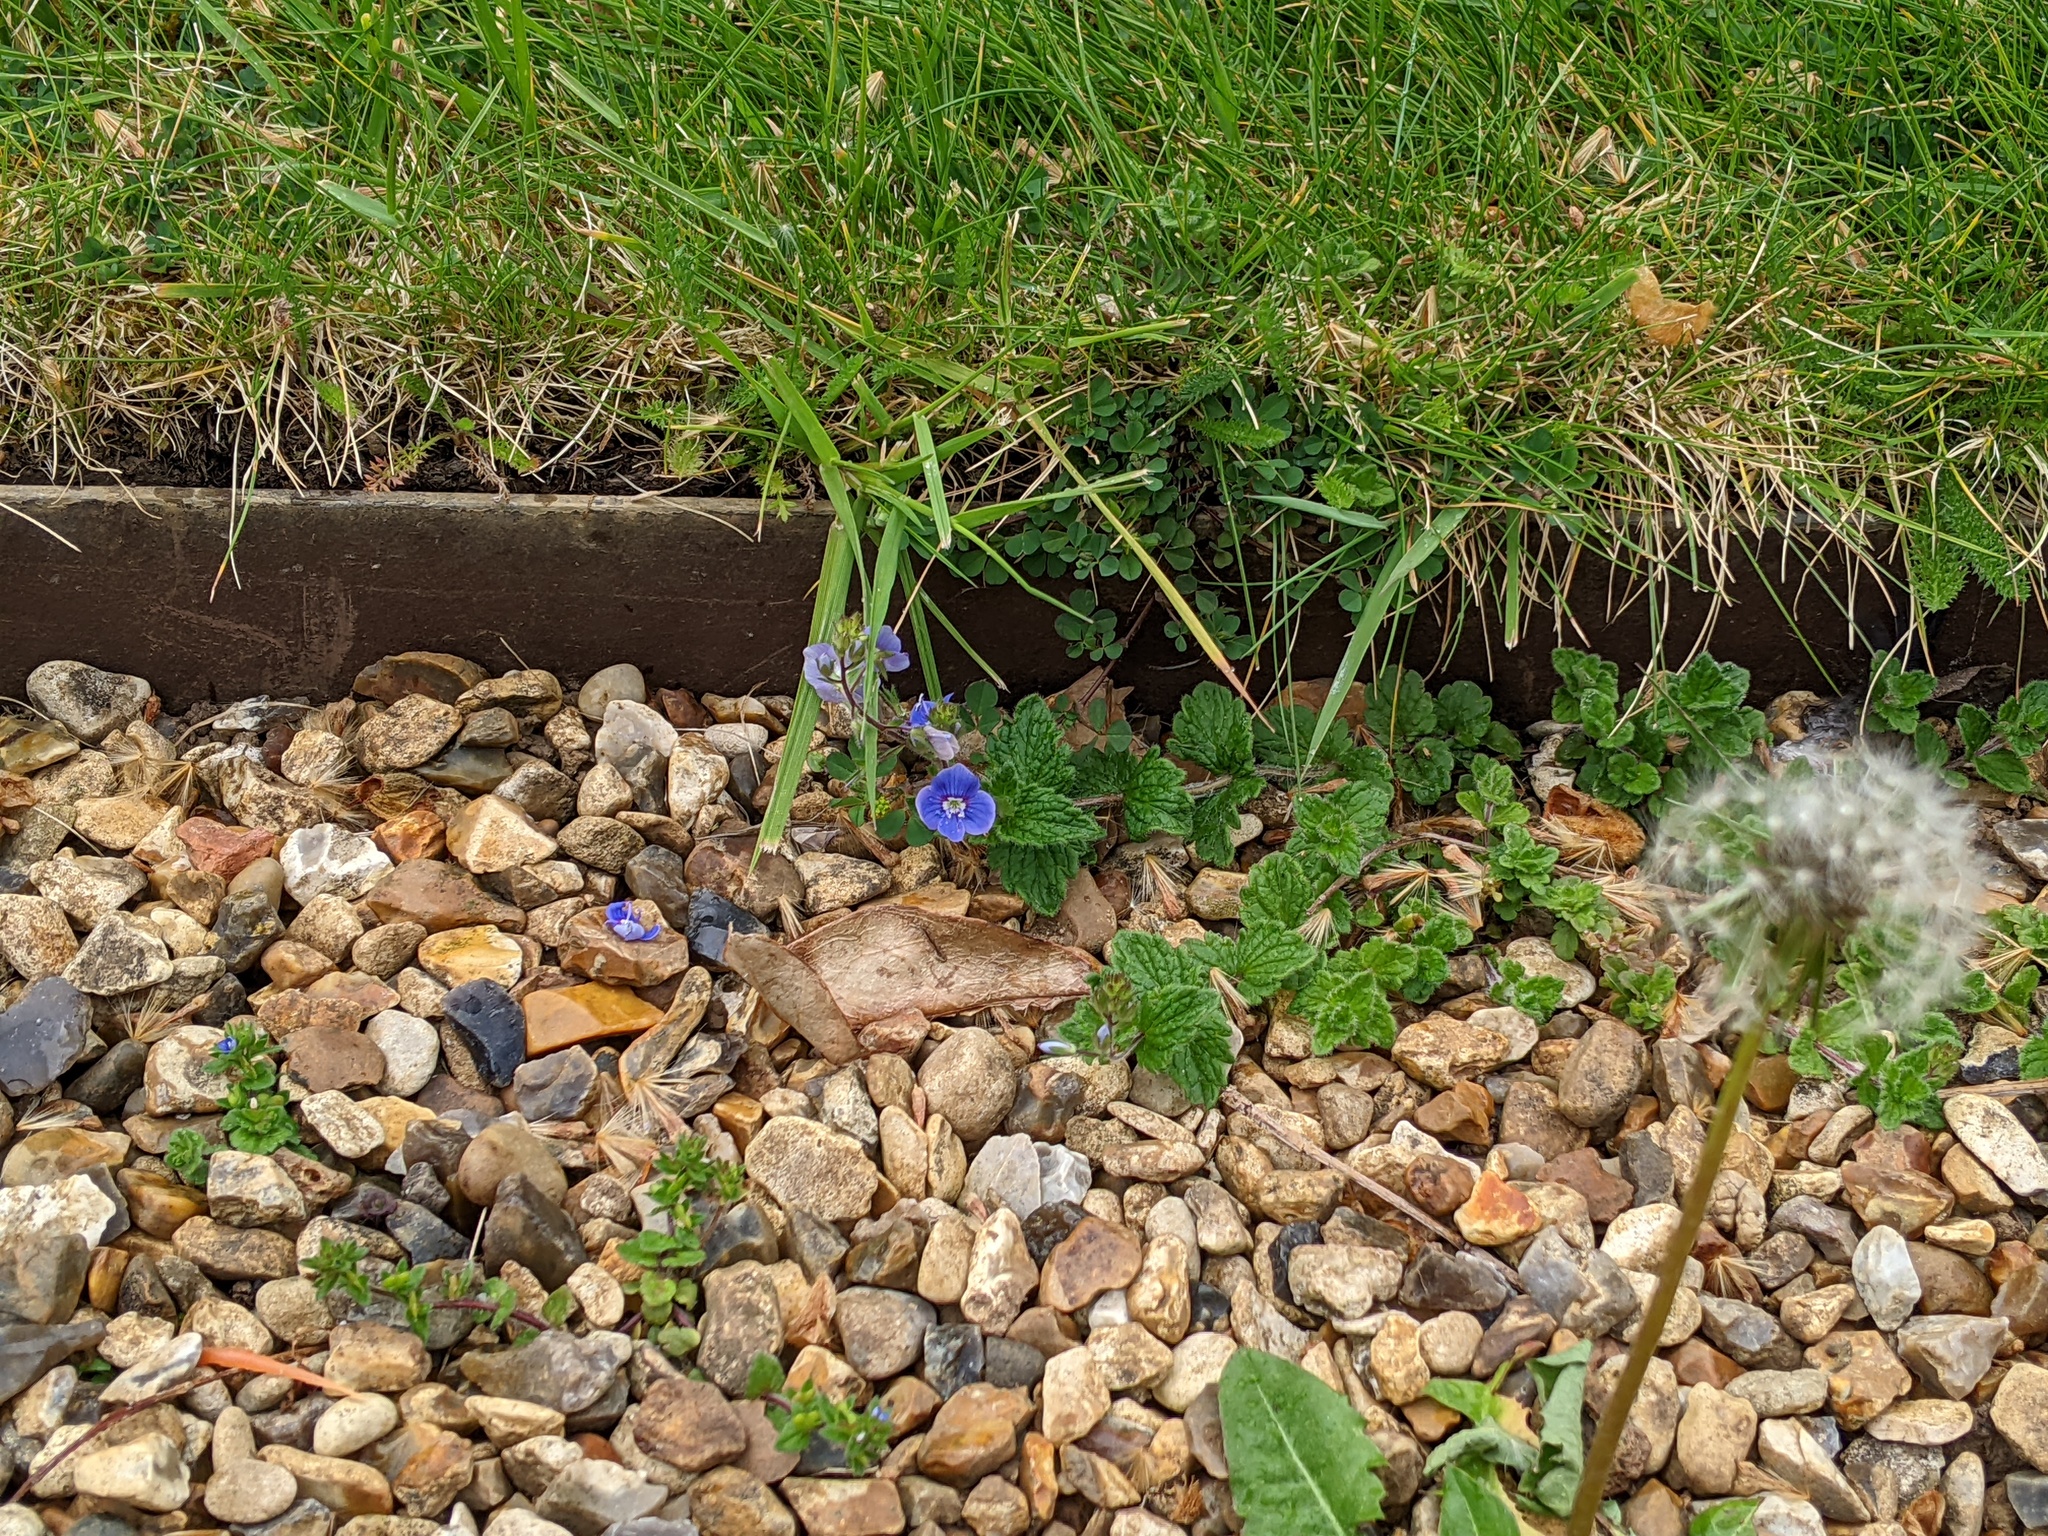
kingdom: Plantae
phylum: Tracheophyta
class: Magnoliopsida
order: Lamiales
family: Plantaginaceae
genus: Veronica
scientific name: Veronica chamaedrys
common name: Germander speedwell
